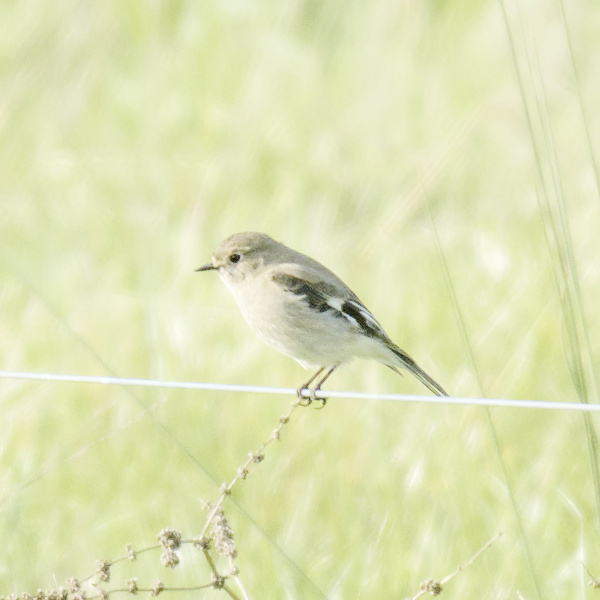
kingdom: Animalia
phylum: Chordata
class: Aves
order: Passeriformes
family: Petroicidae
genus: Petroica
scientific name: Petroica phoenicea
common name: Flame robin
